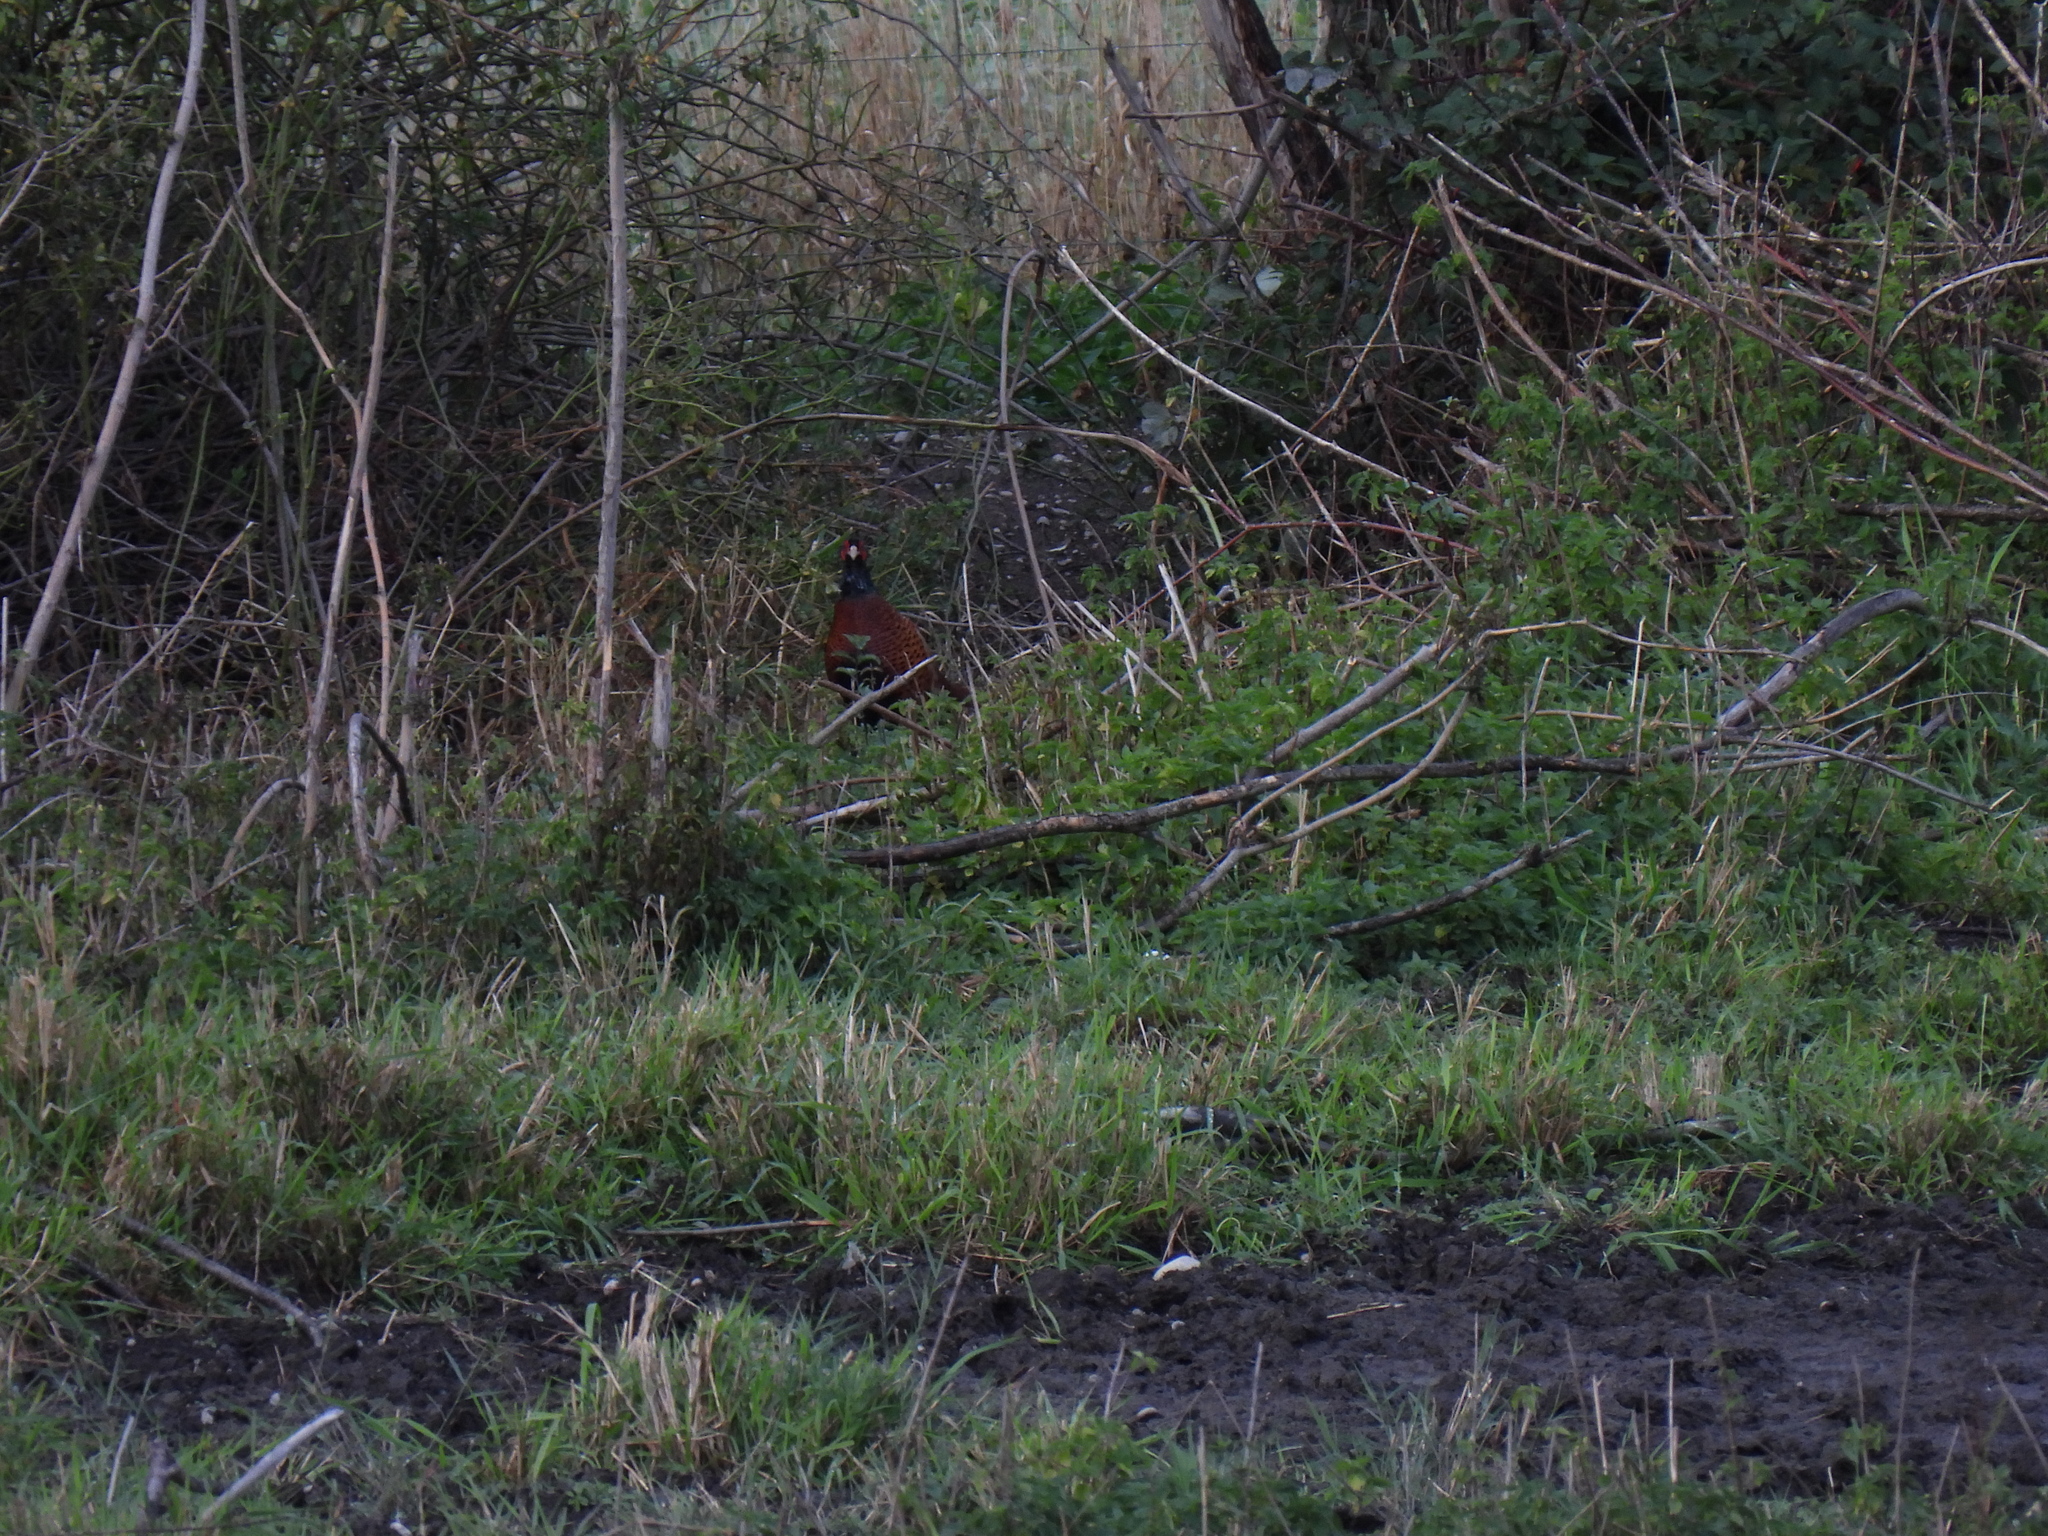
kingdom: Animalia
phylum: Chordata
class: Aves
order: Galliformes
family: Phasianidae
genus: Phasianus
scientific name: Phasianus colchicus
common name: Common pheasant
